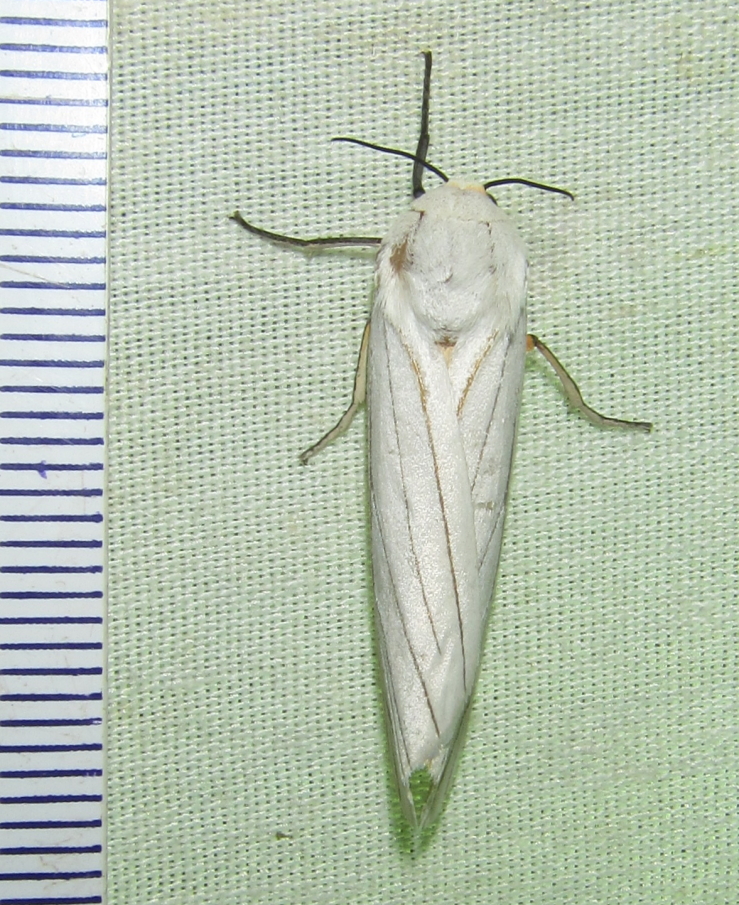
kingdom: Animalia
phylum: Arthropoda
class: Insecta
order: Lepidoptera
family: Erebidae
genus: Ustjuzhania
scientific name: Ustjuzhania lineata
